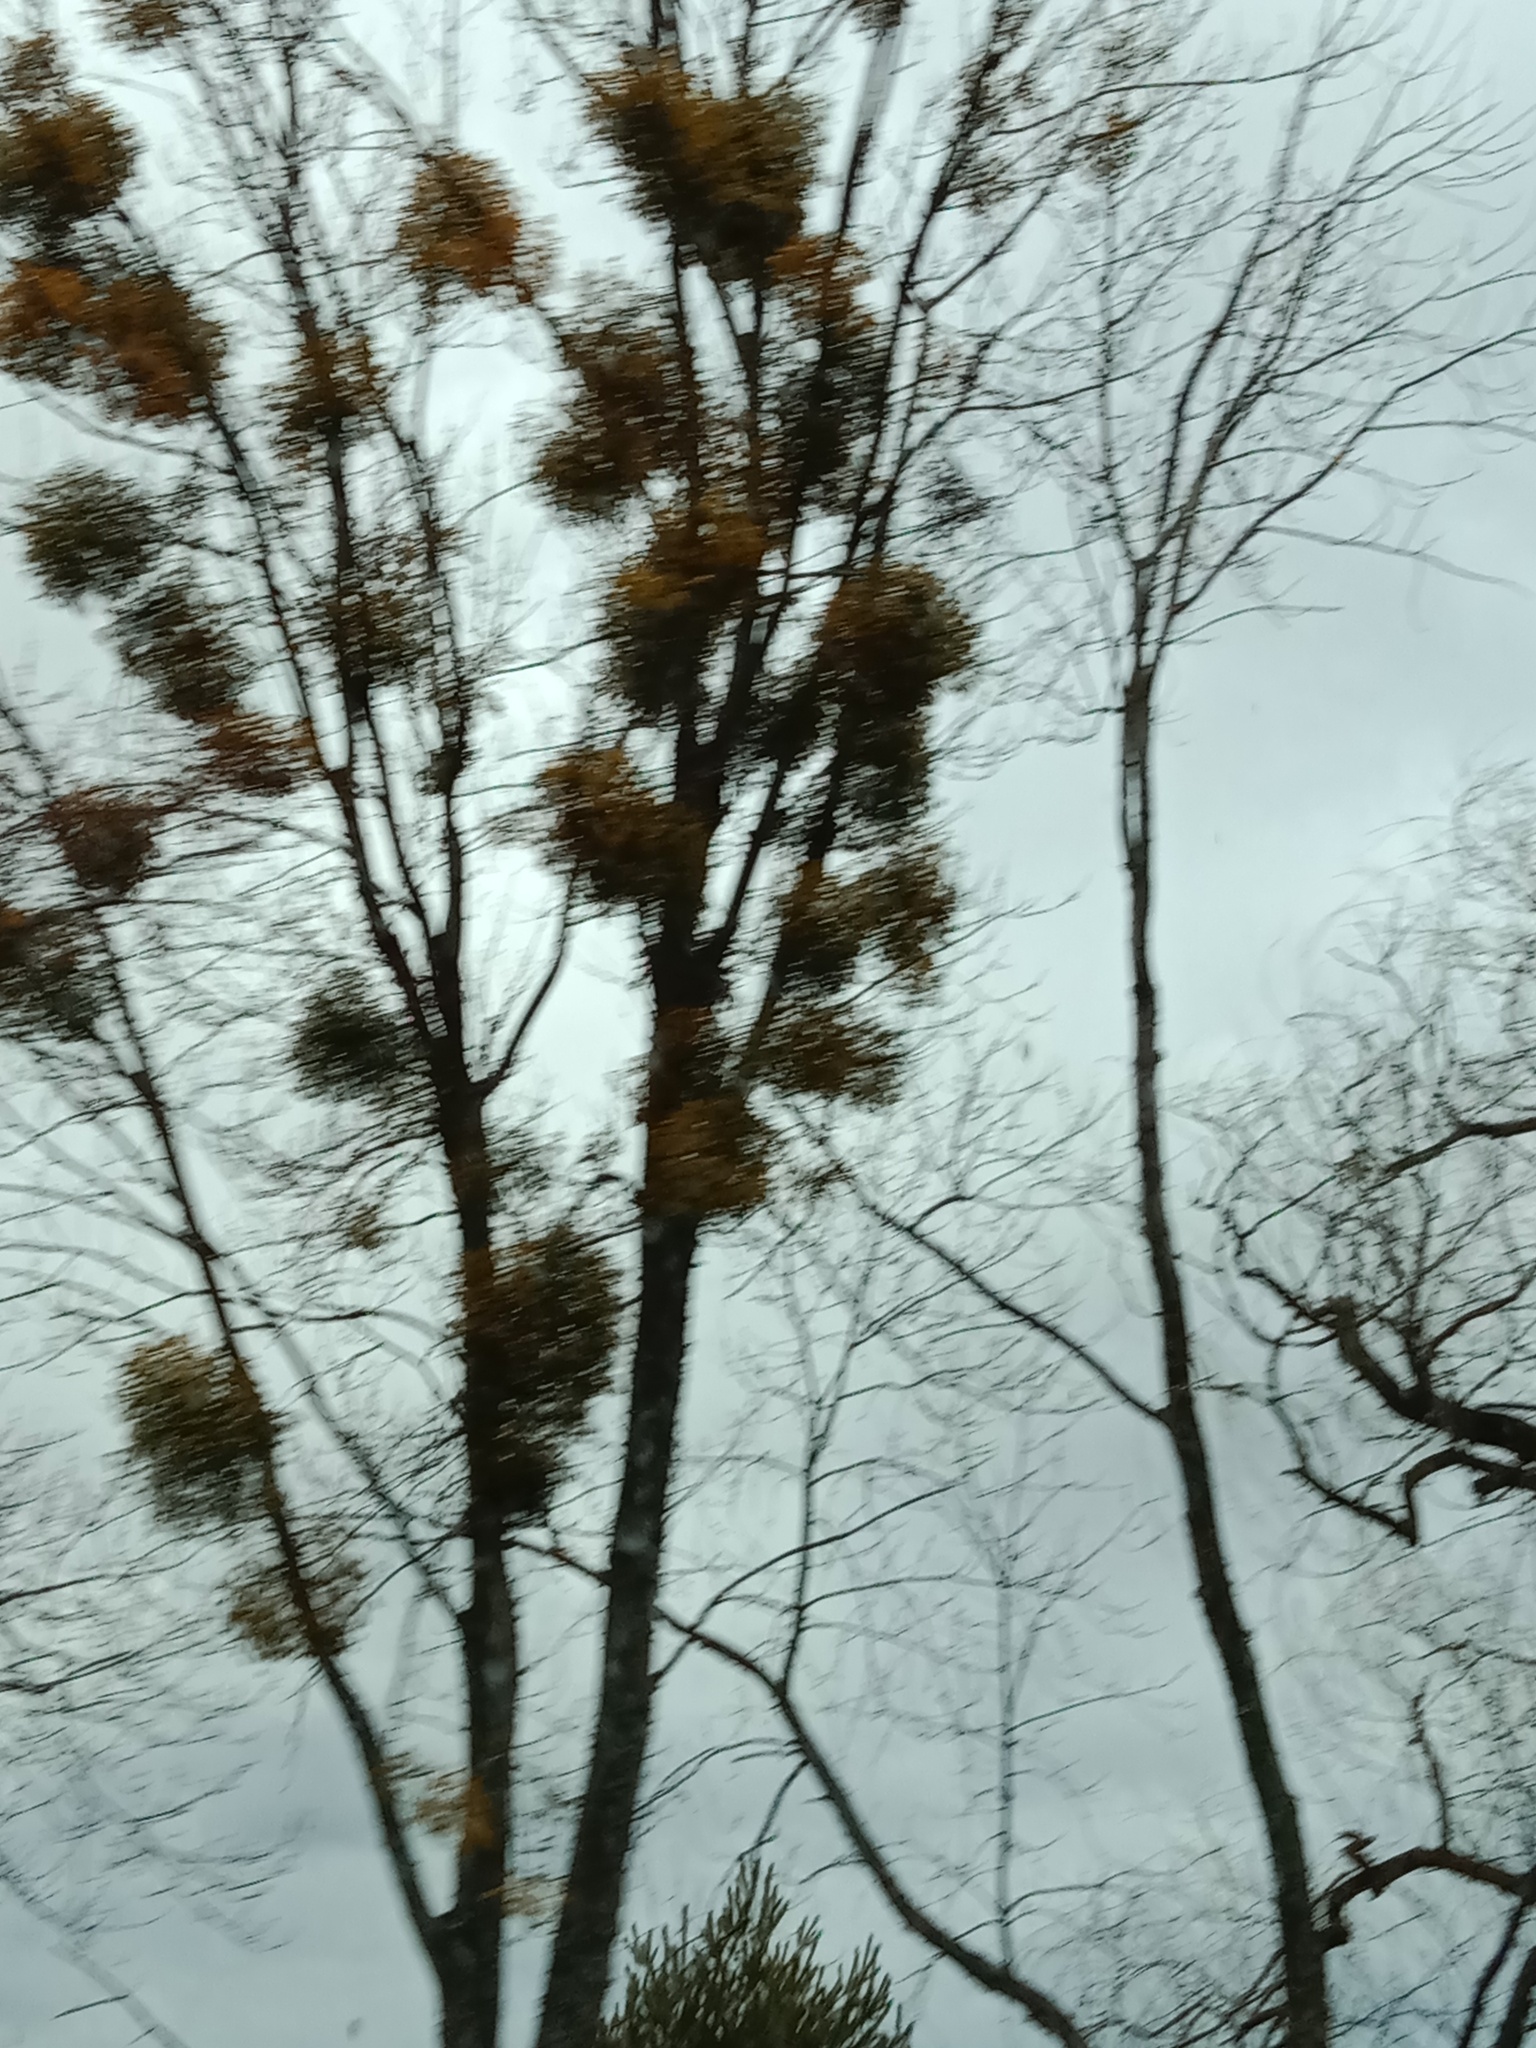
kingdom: Plantae
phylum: Tracheophyta
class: Magnoliopsida
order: Santalales
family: Viscaceae
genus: Viscum
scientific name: Viscum album
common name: Mistletoe
